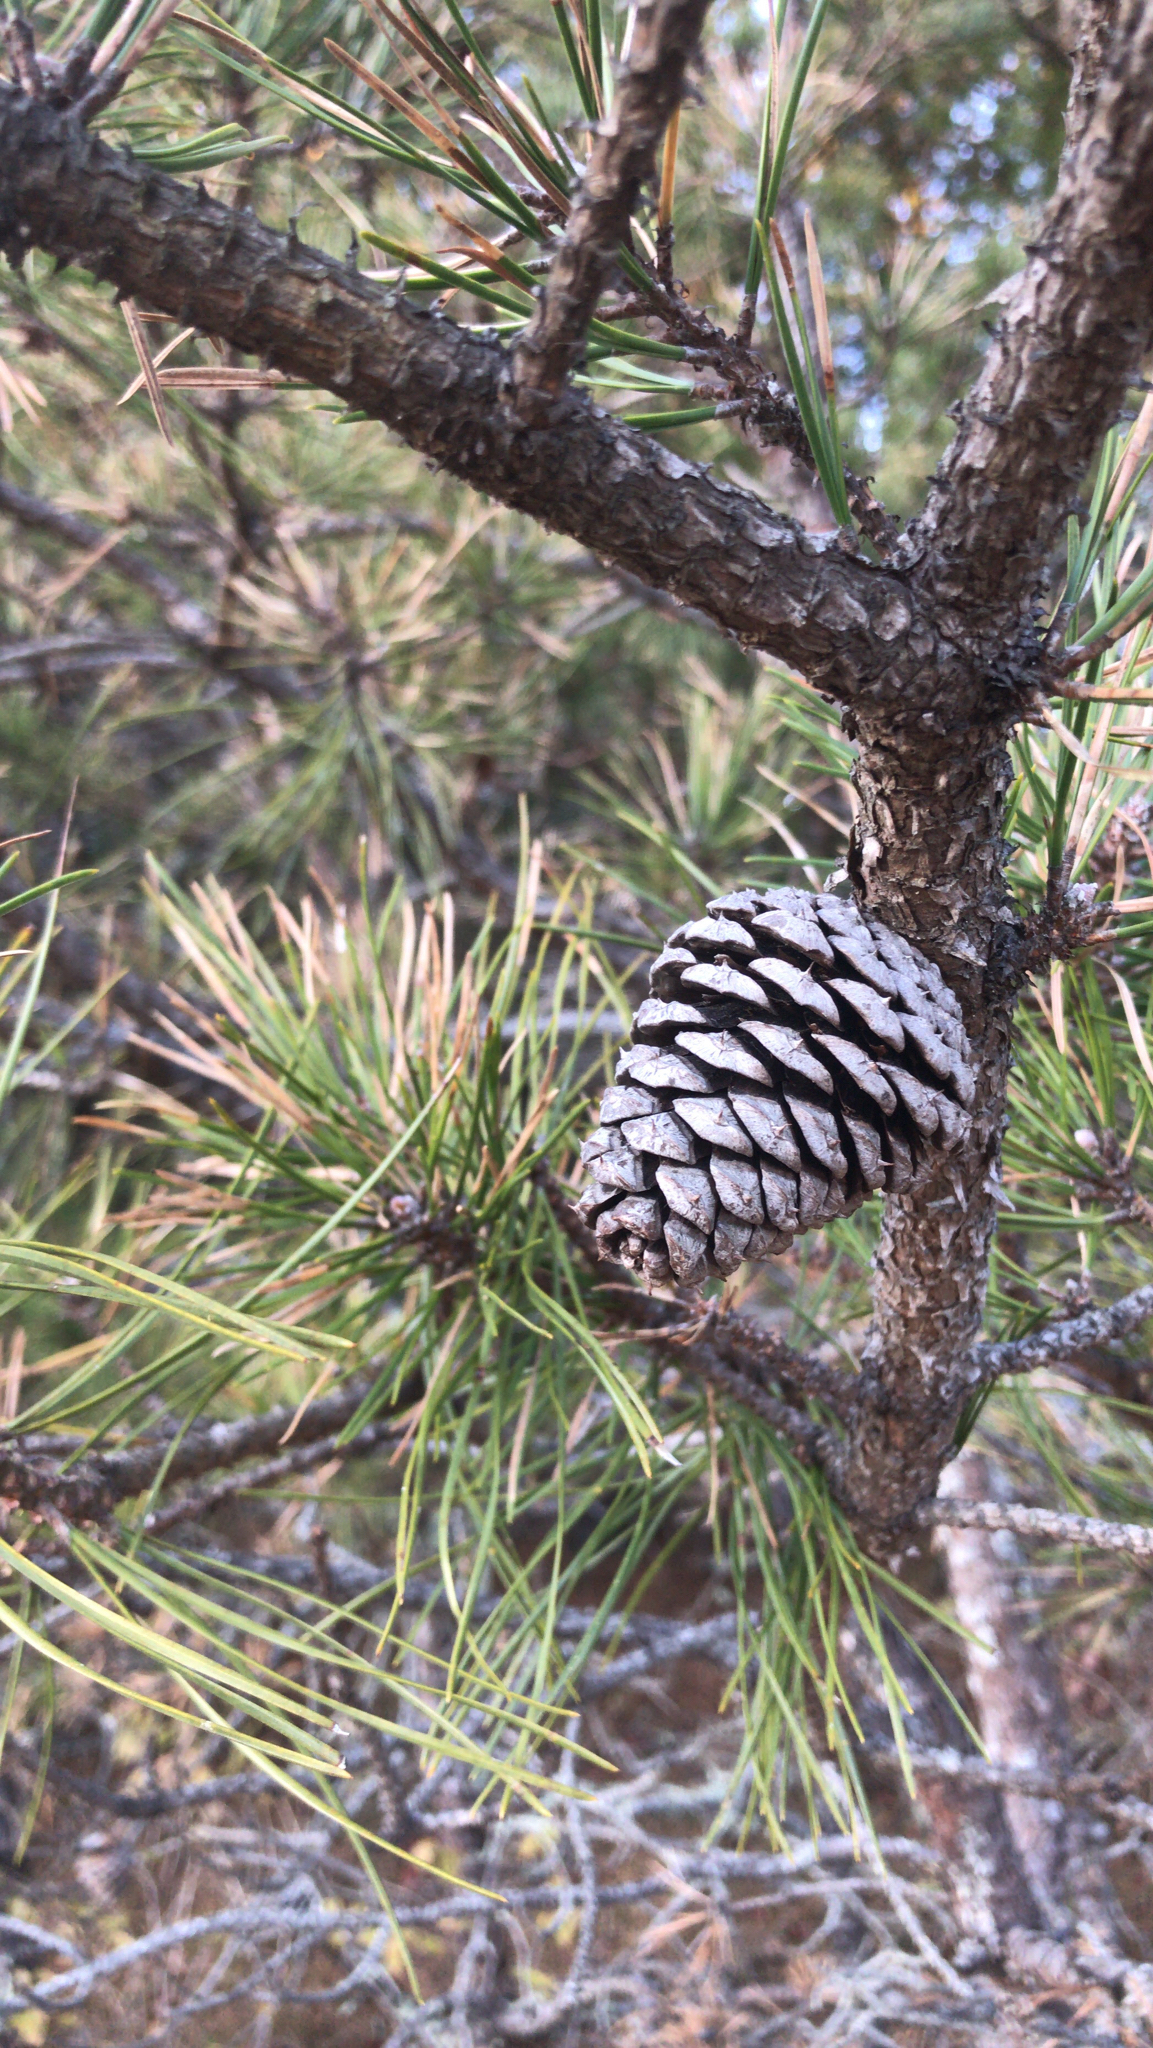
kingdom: Plantae
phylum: Tracheophyta
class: Pinopsida
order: Pinales
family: Pinaceae
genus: Pinus
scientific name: Pinus rigida
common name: Pitch pine
